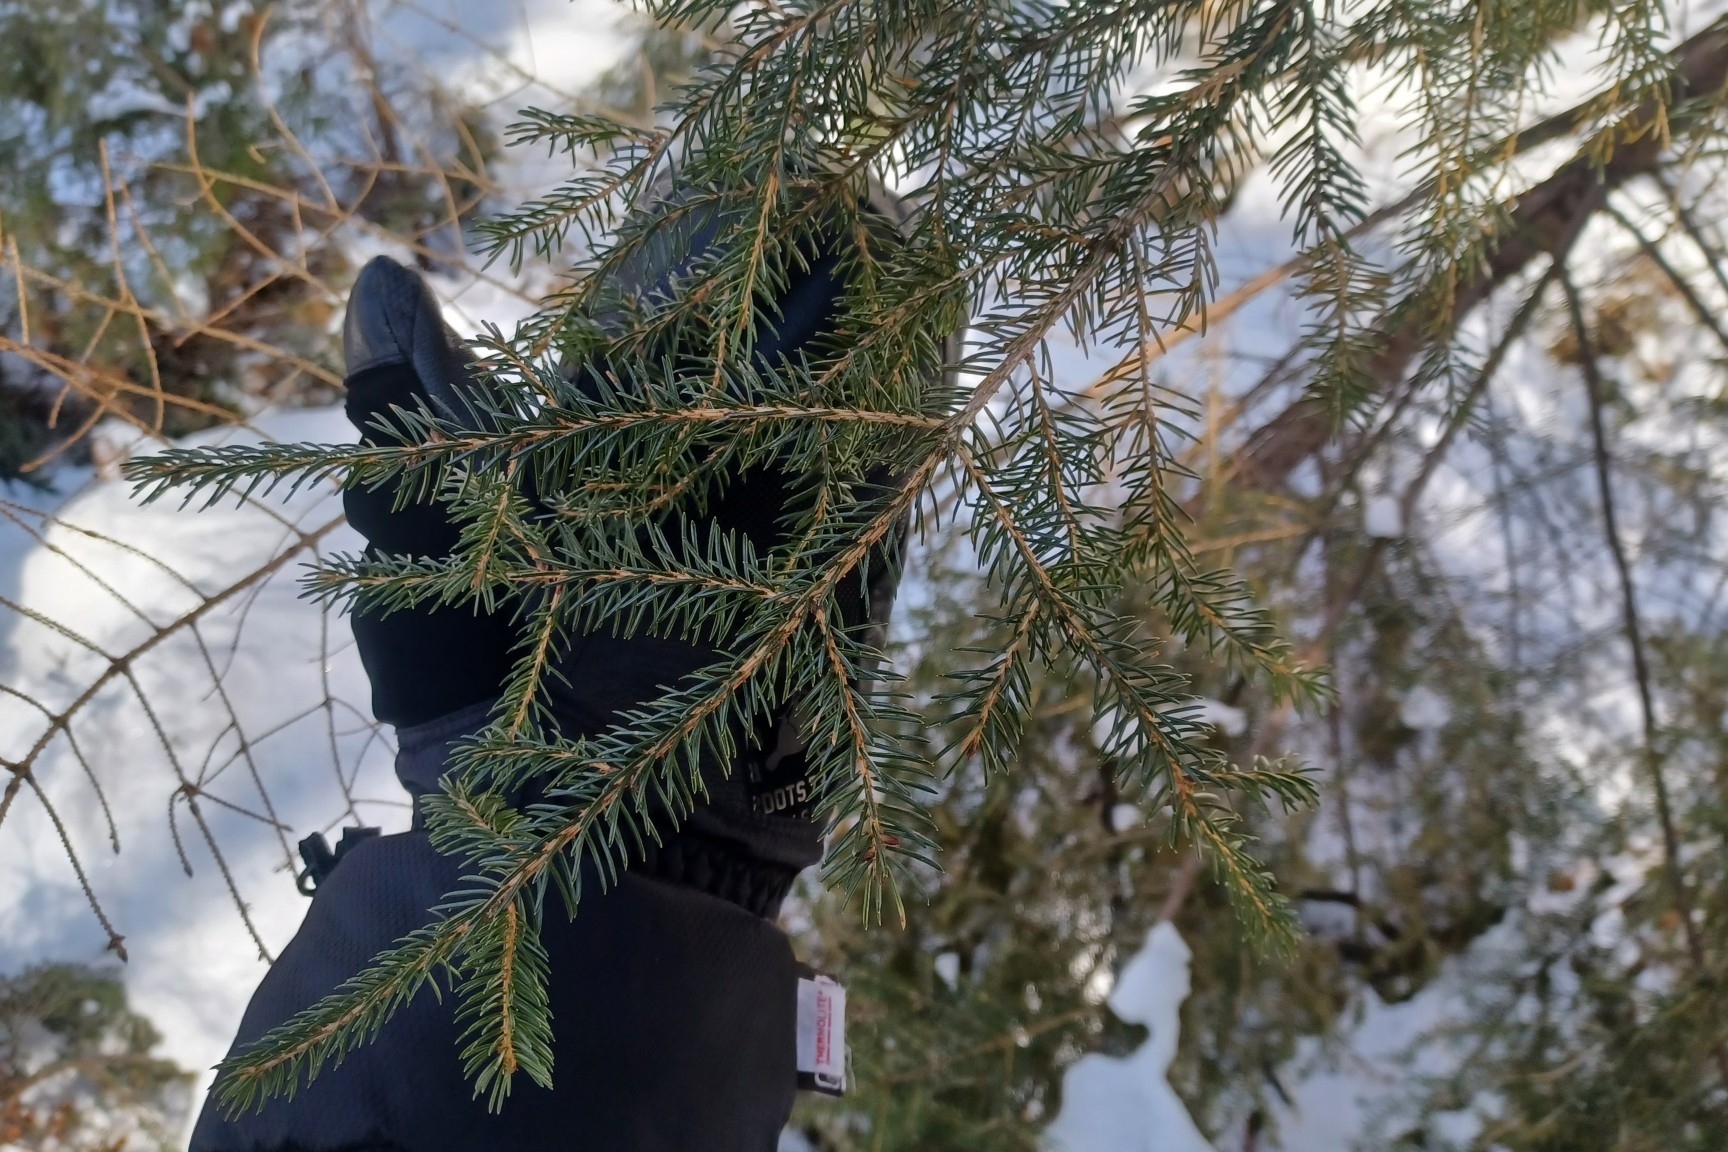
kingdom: Plantae
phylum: Tracheophyta
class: Pinopsida
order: Pinales
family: Pinaceae
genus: Picea
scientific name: Picea rubens
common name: Red spruce
